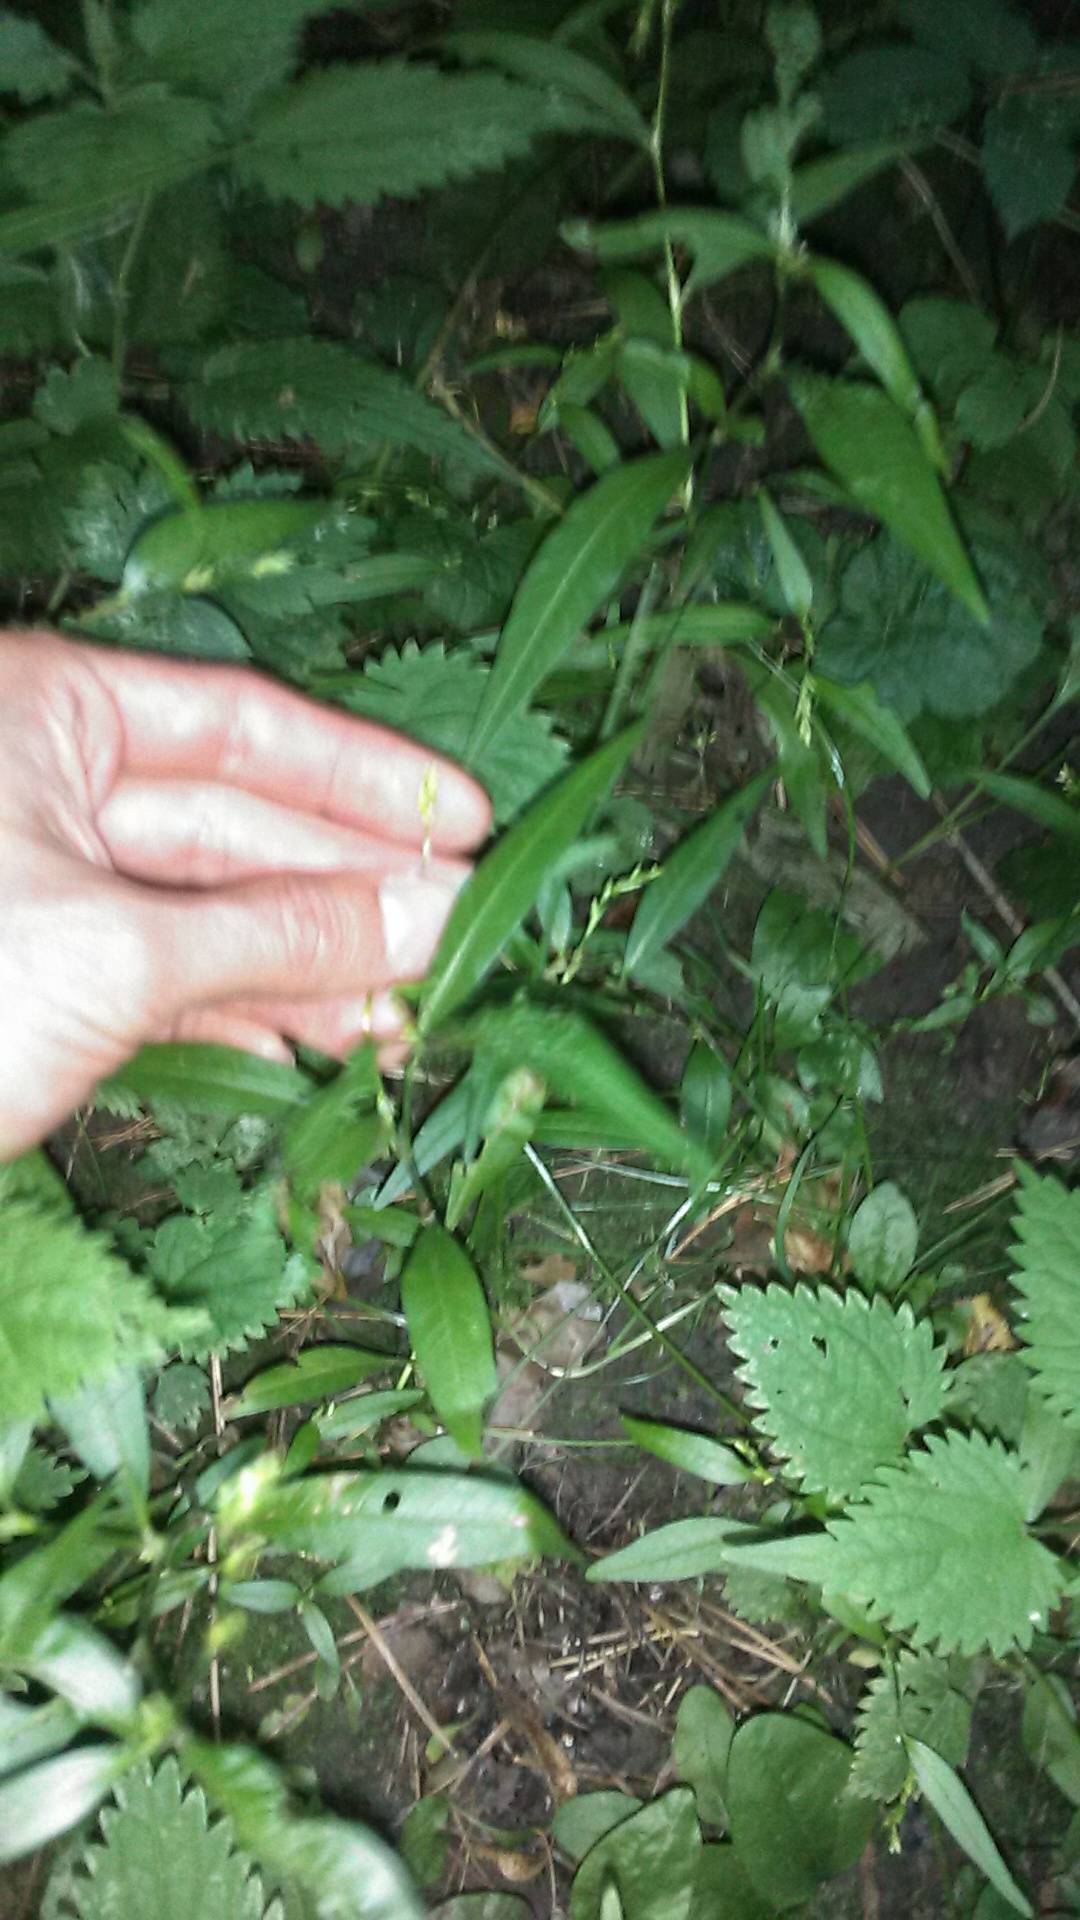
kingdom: Plantae
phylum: Tracheophyta
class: Magnoliopsida
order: Caryophyllales
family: Polygonaceae
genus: Persicaria
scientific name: Persicaria hydropiper
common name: Water-pepper
